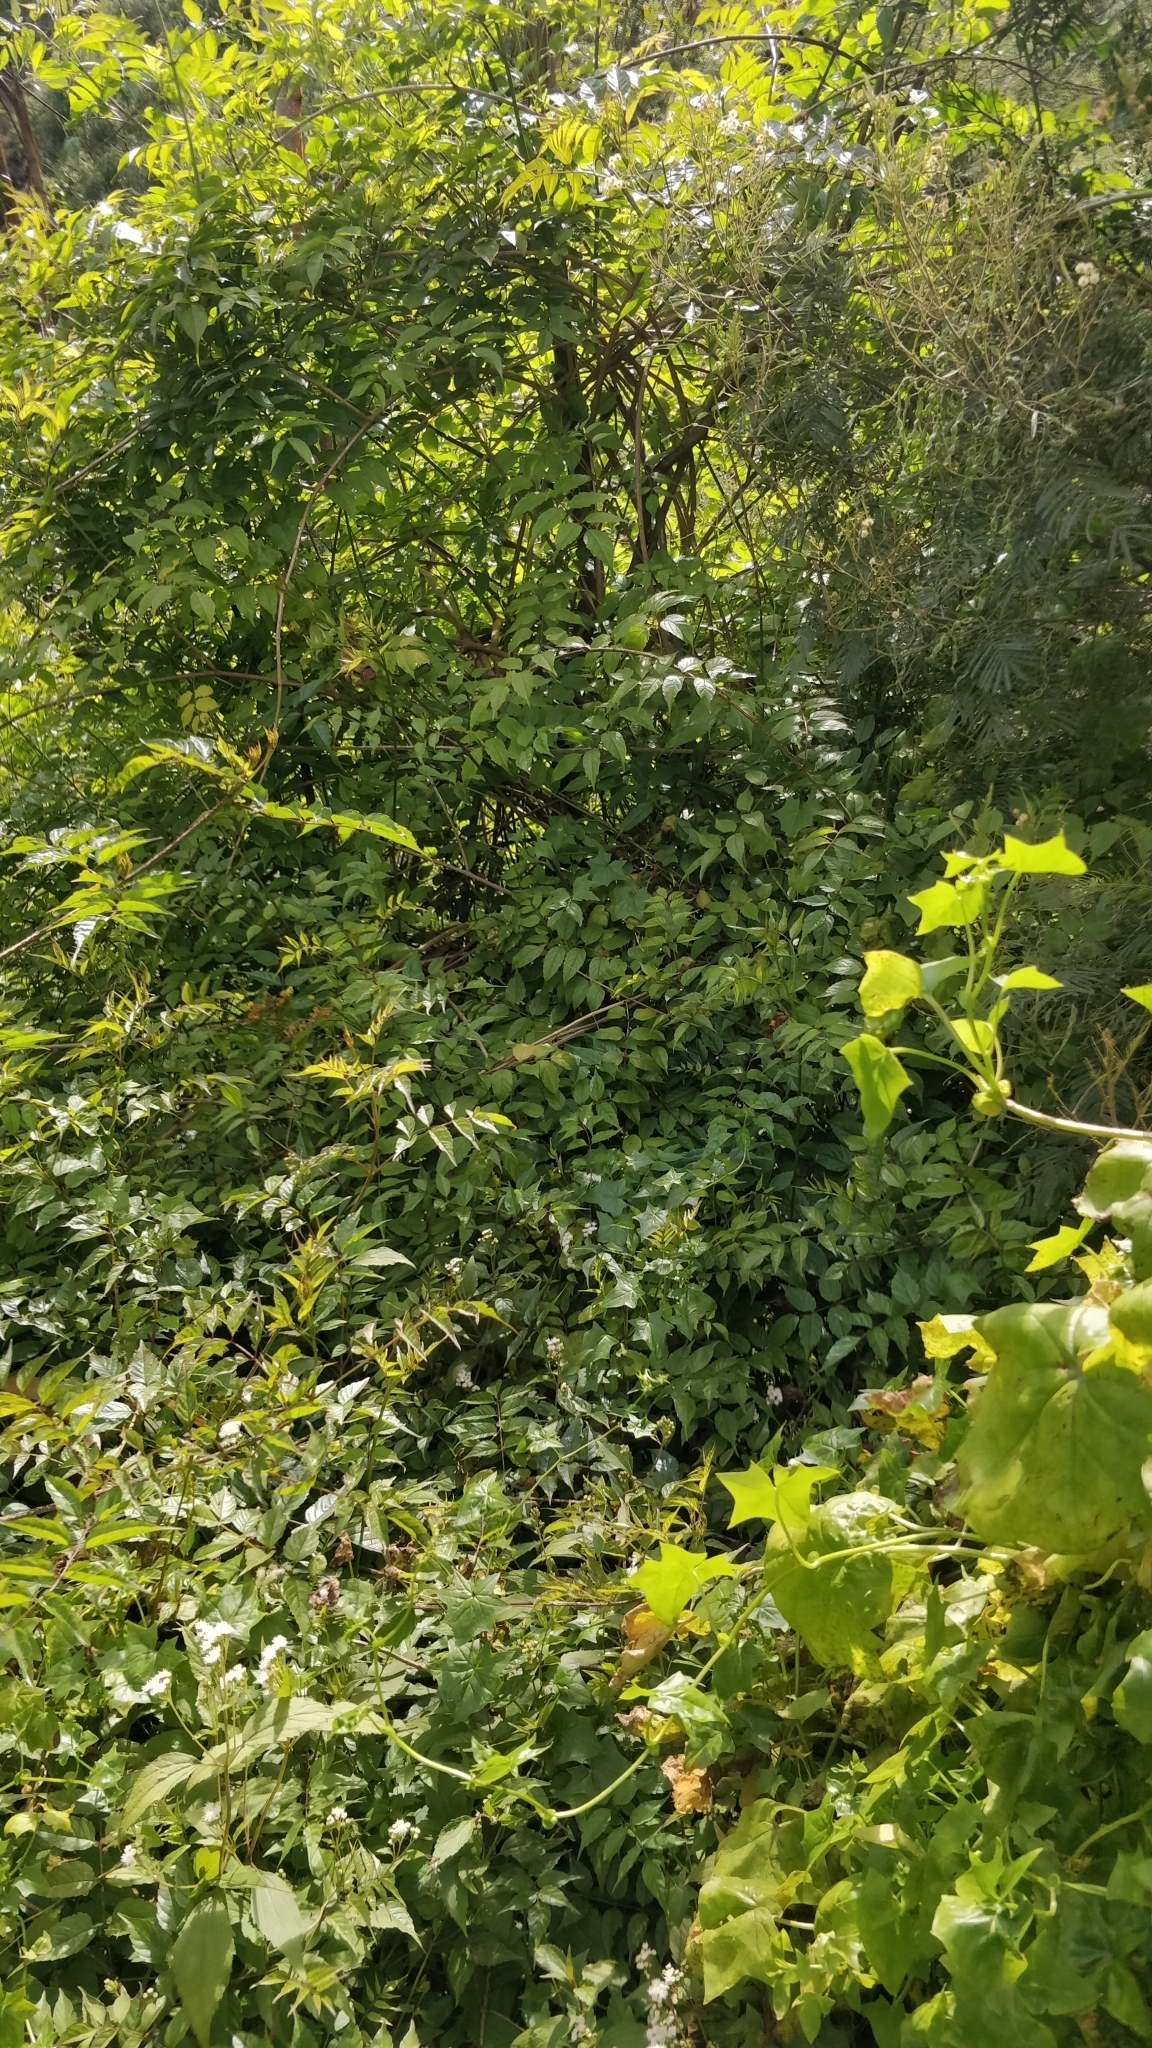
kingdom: Plantae
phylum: Tracheophyta
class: Magnoliopsida
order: Lamiales
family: Bignoniaceae
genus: Podranea
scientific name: Podranea ricasoliana
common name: Zimbabwe creeper
